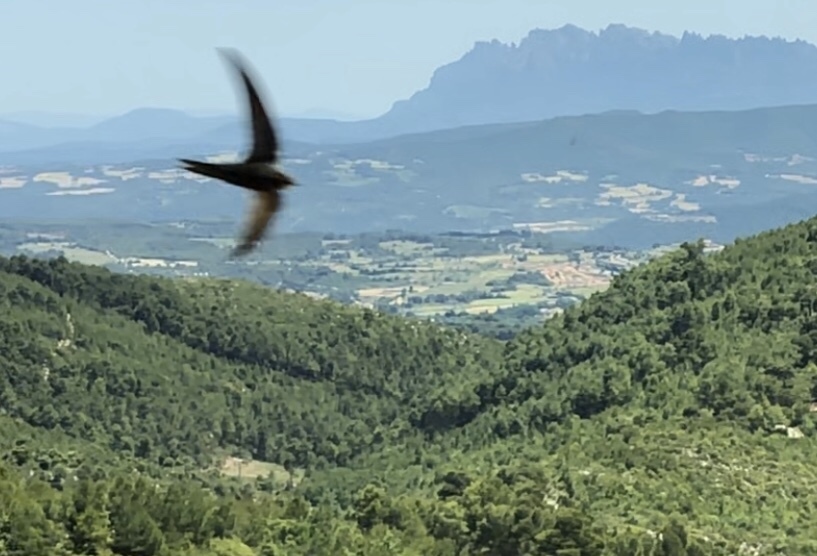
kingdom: Animalia
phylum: Chordata
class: Aves
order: Apodiformes
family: Apodidae
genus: Apus
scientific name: Apus apus
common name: Common swift
